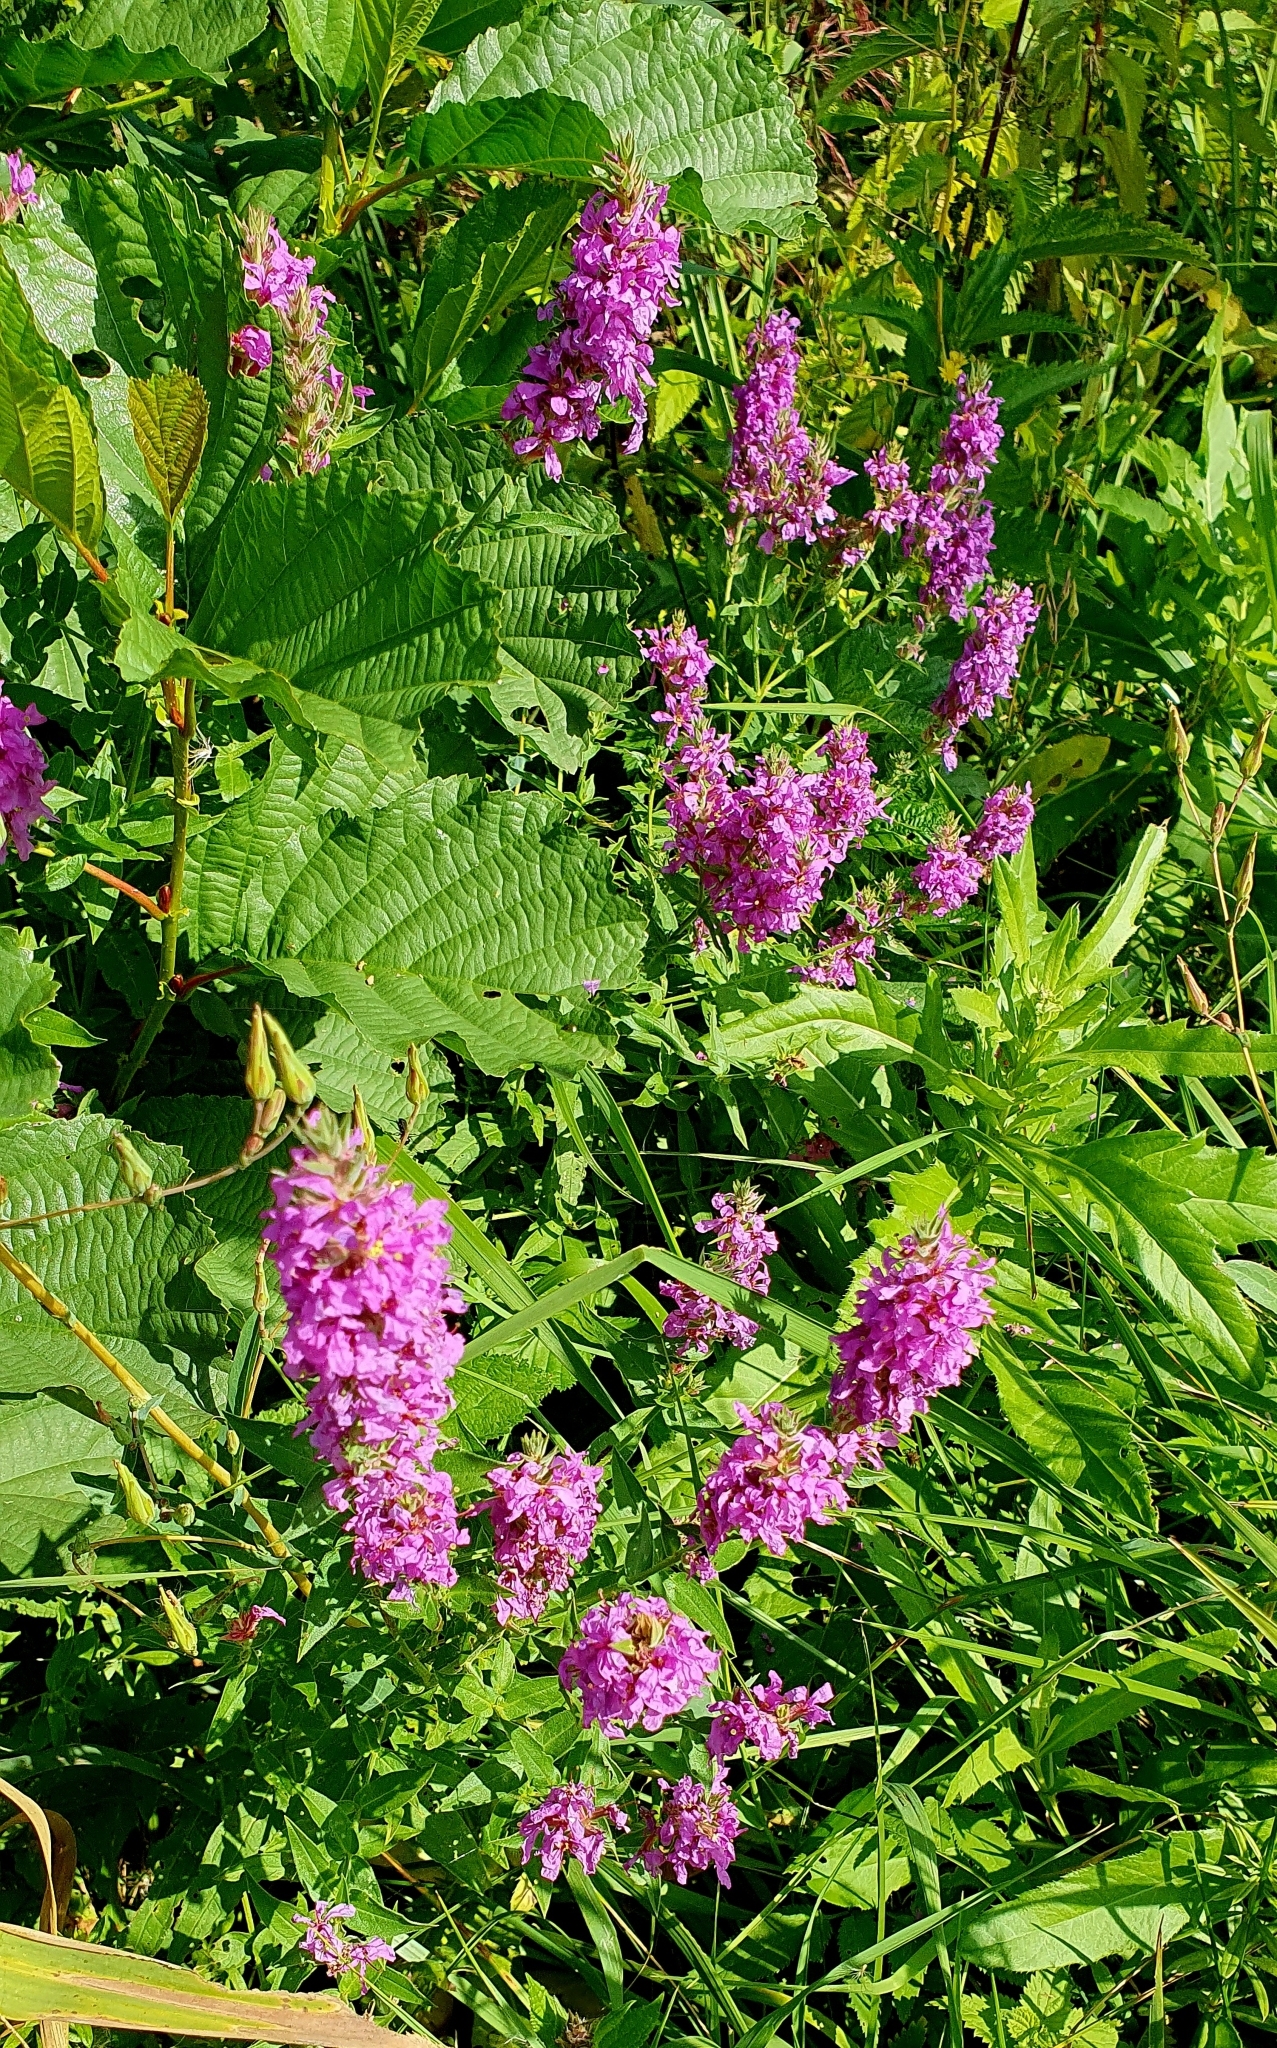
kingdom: Plantae
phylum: Tracheophyta
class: Magnoliopsida
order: Myrtales
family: Lythraceae
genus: Lythrum
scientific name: Lythrum salicaria
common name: Purple loosestrife
